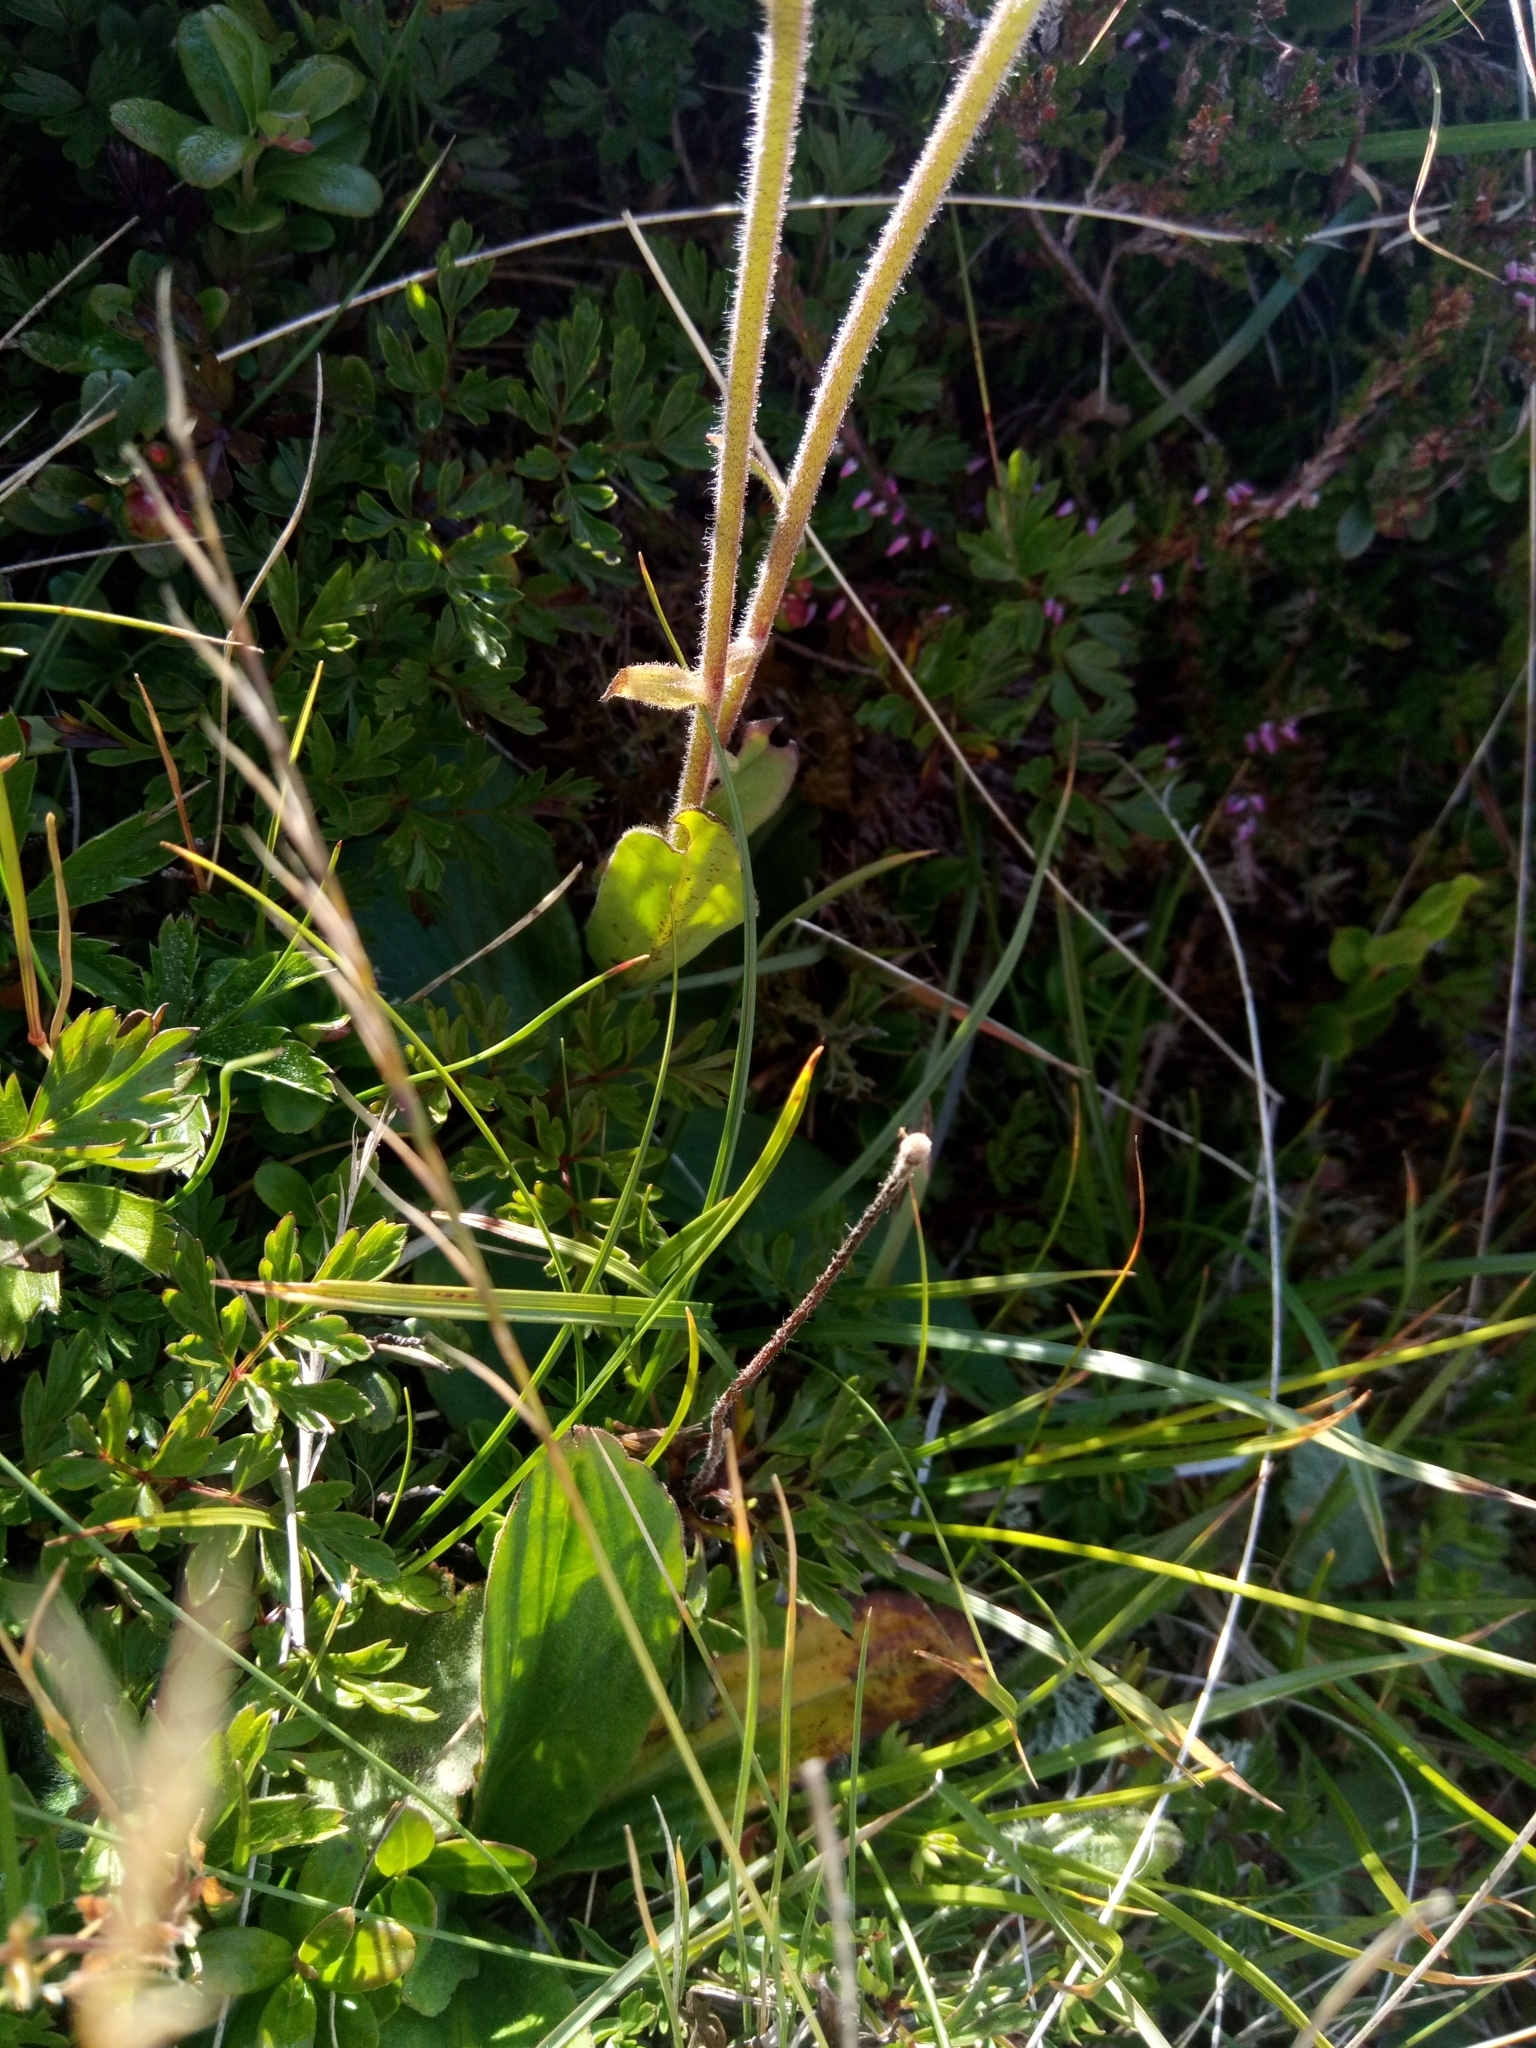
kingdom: Plantae
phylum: Tracheophyta
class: Magnoliopsida
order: Asterales
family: Asteraceae
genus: Arnica
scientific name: Arnica montana
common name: Leopard's bane
